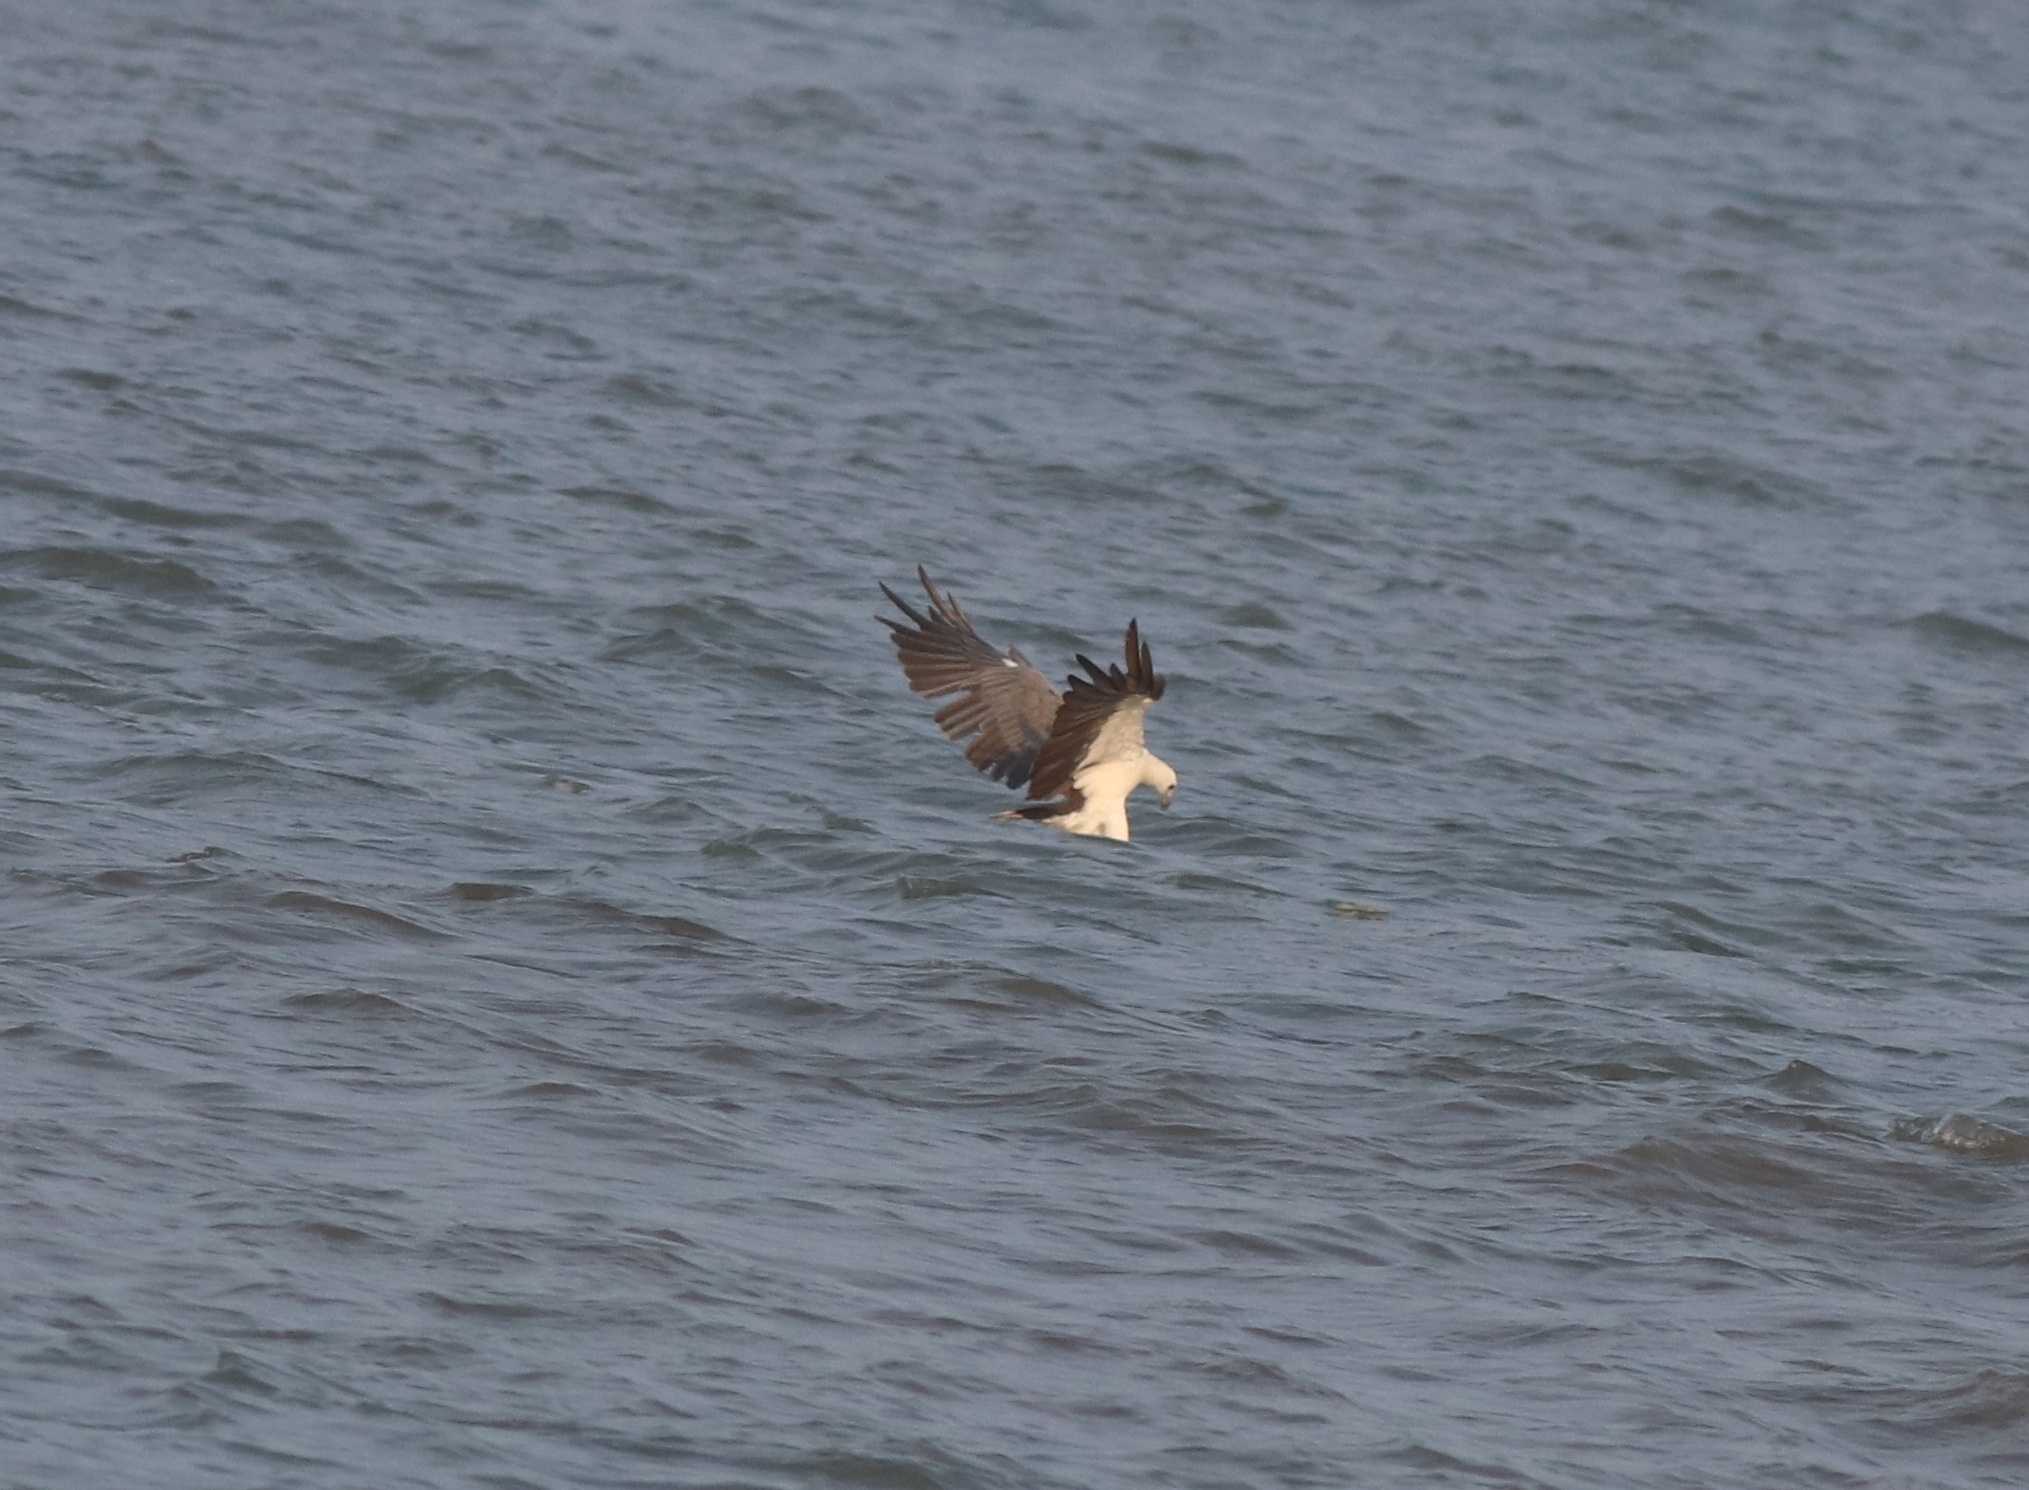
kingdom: Animalia
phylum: Chordata
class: Aves
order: Accipitriformes
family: Accipitridae
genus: Haliaeetus
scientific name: Haliaeetus leucogaster
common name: White-bellied sea eagle
